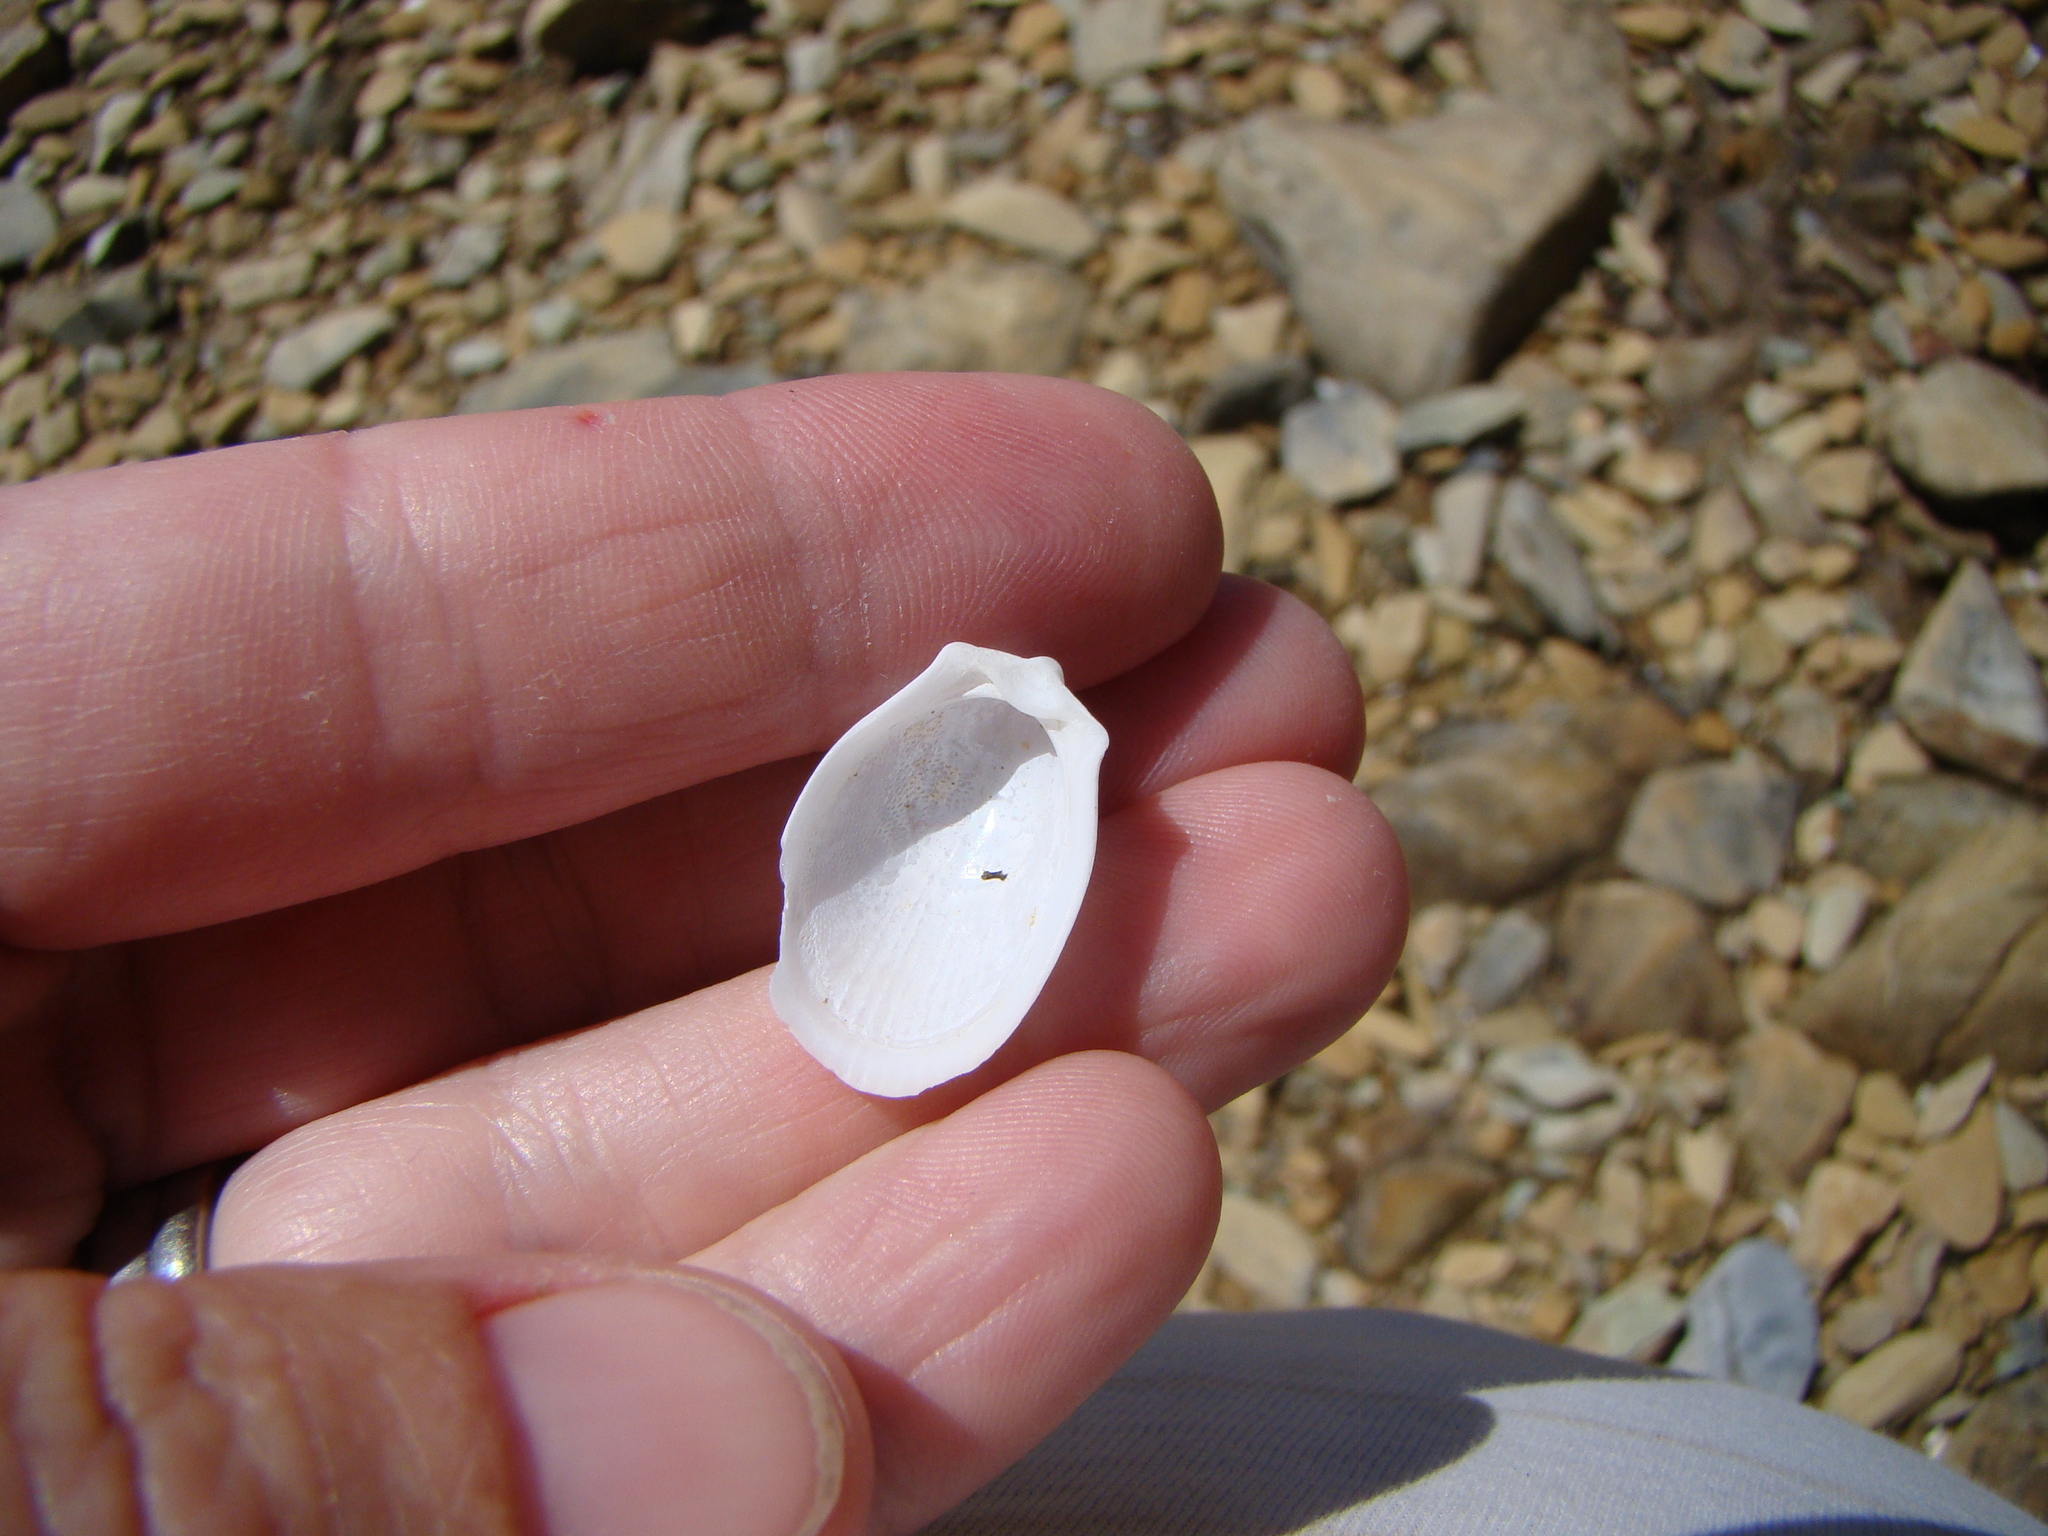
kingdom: Animalia
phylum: Mollusca
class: Bivalvia
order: Limida
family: Limidae
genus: Limatula
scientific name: Limatula maoria
